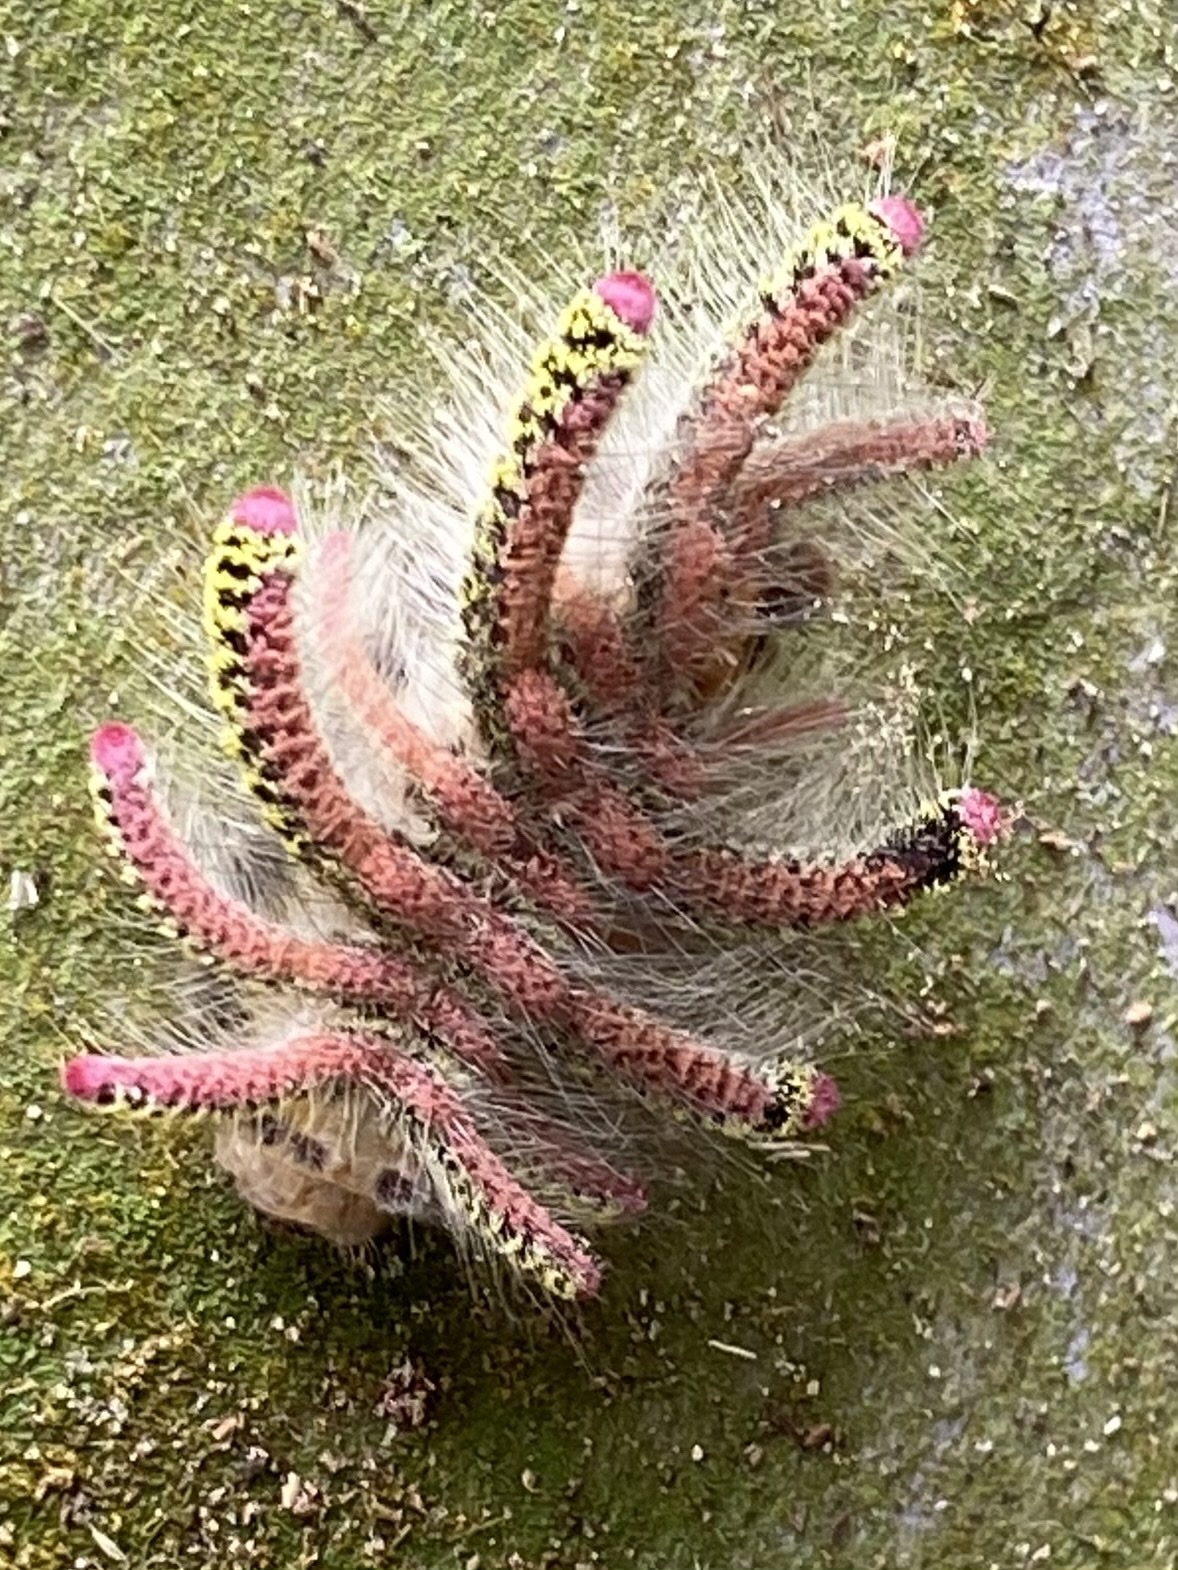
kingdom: Animalia
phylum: Arthropoda
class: Insecta
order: Lepidoptera
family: Limacodidae
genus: Euphobetron
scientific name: Euphobetron cypris
